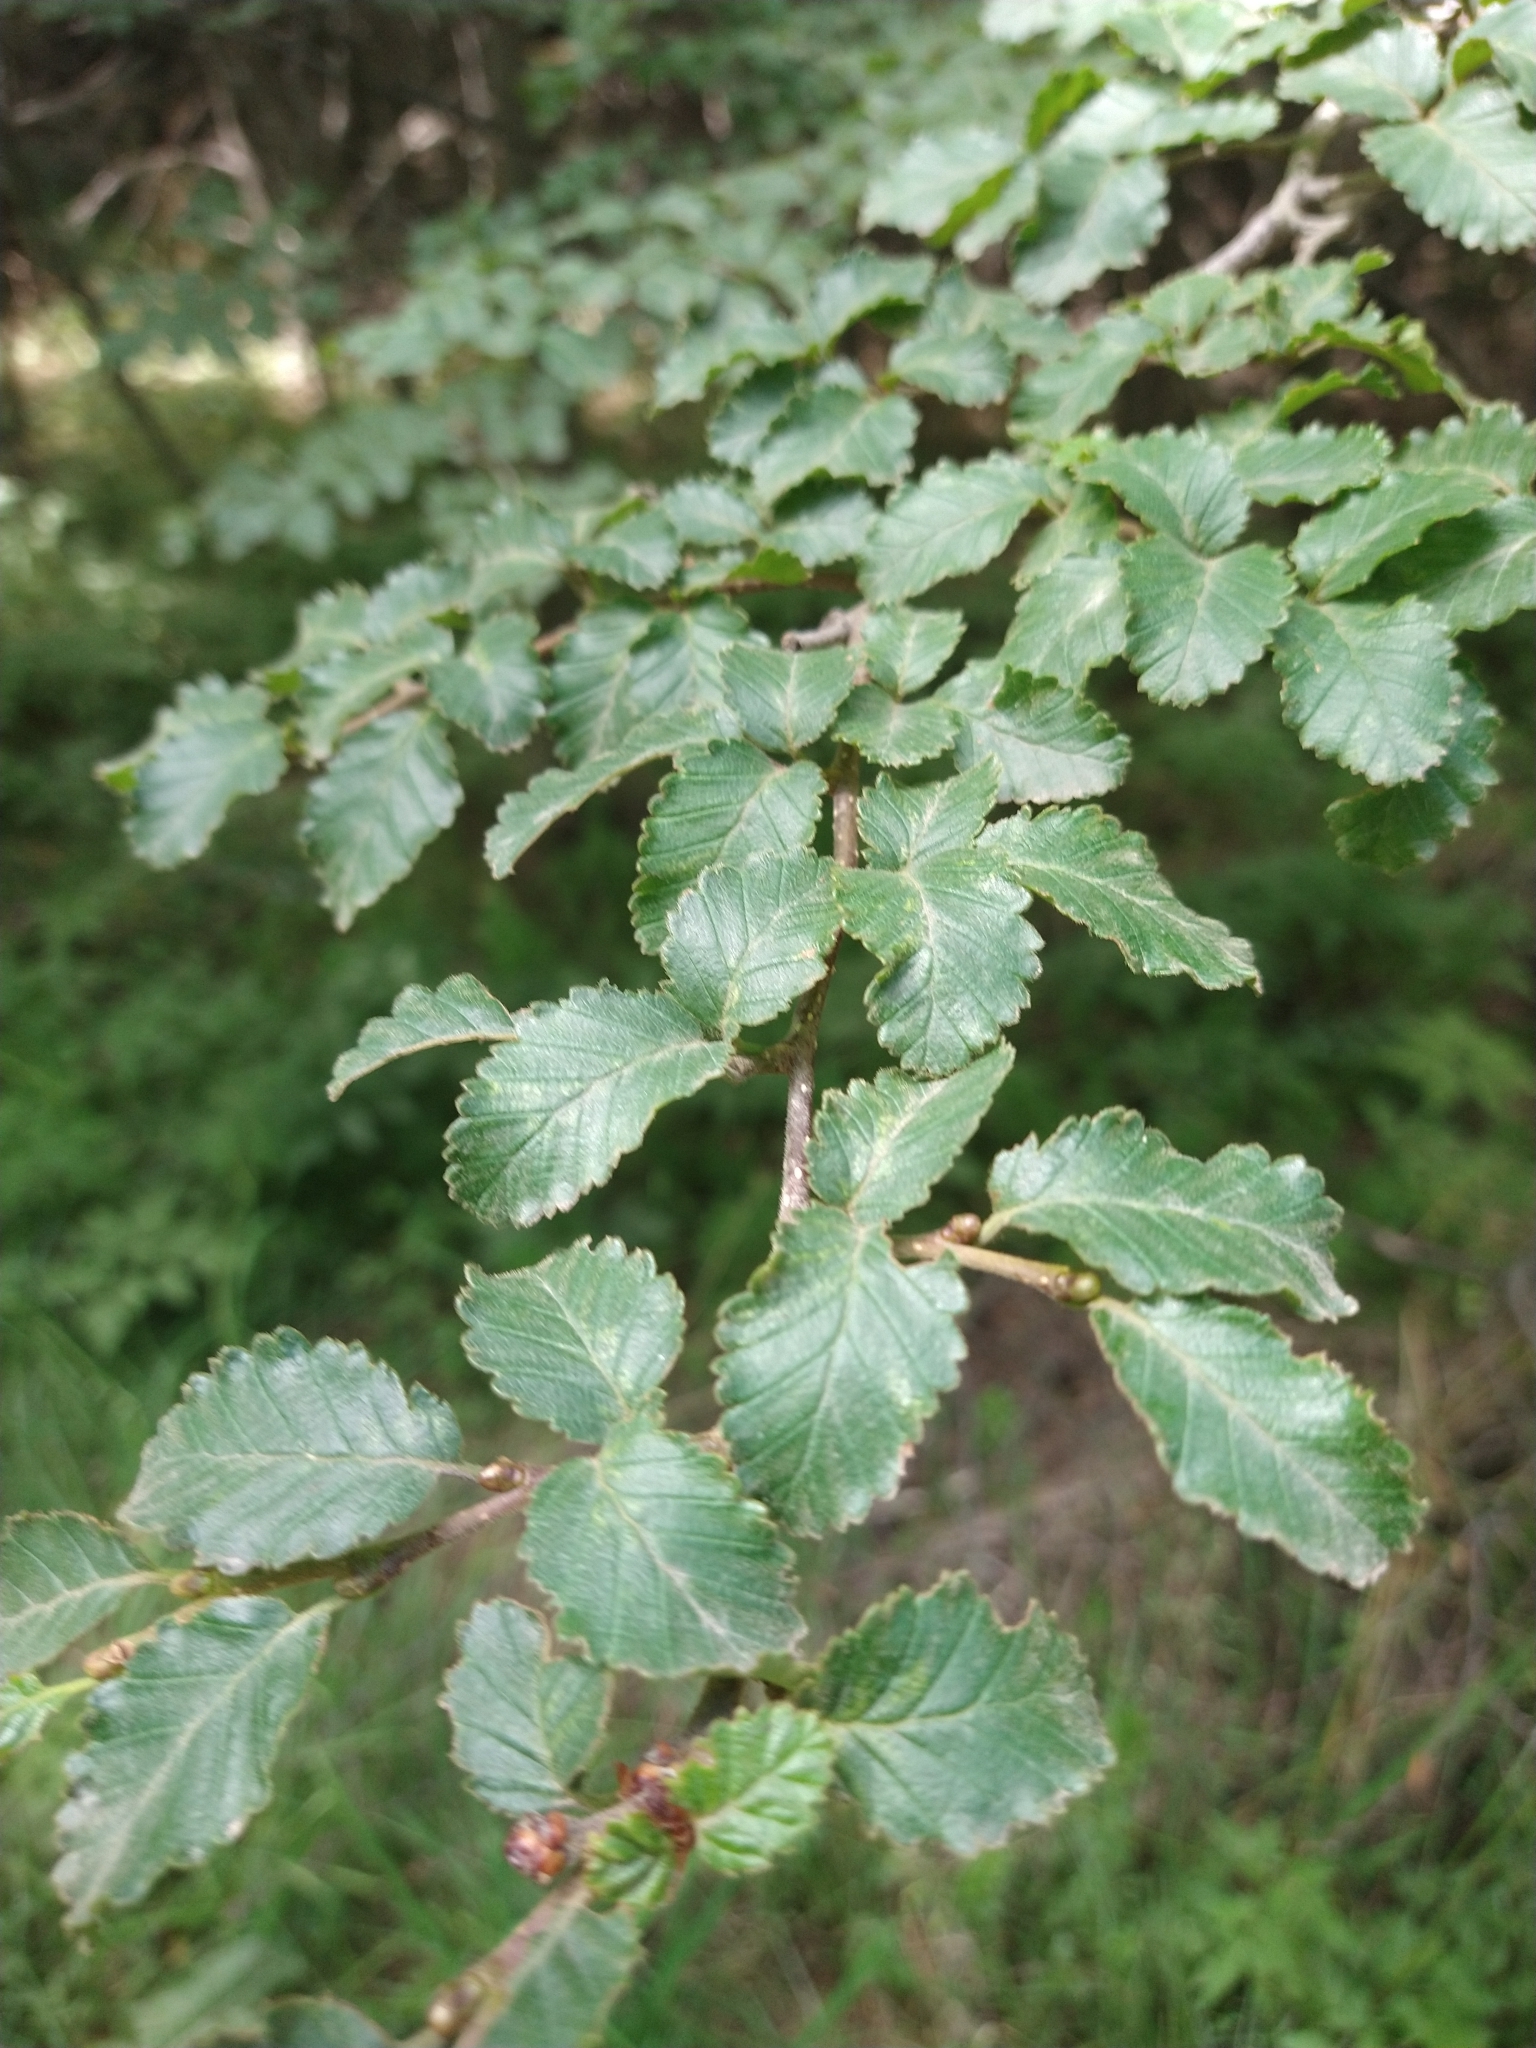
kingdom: Plantae
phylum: Tracheophyta
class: Magnoliopsida
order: Fagales
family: Nothofagaceae
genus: Nothofagus
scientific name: Nothofagus pumilio
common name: Lenga beech
